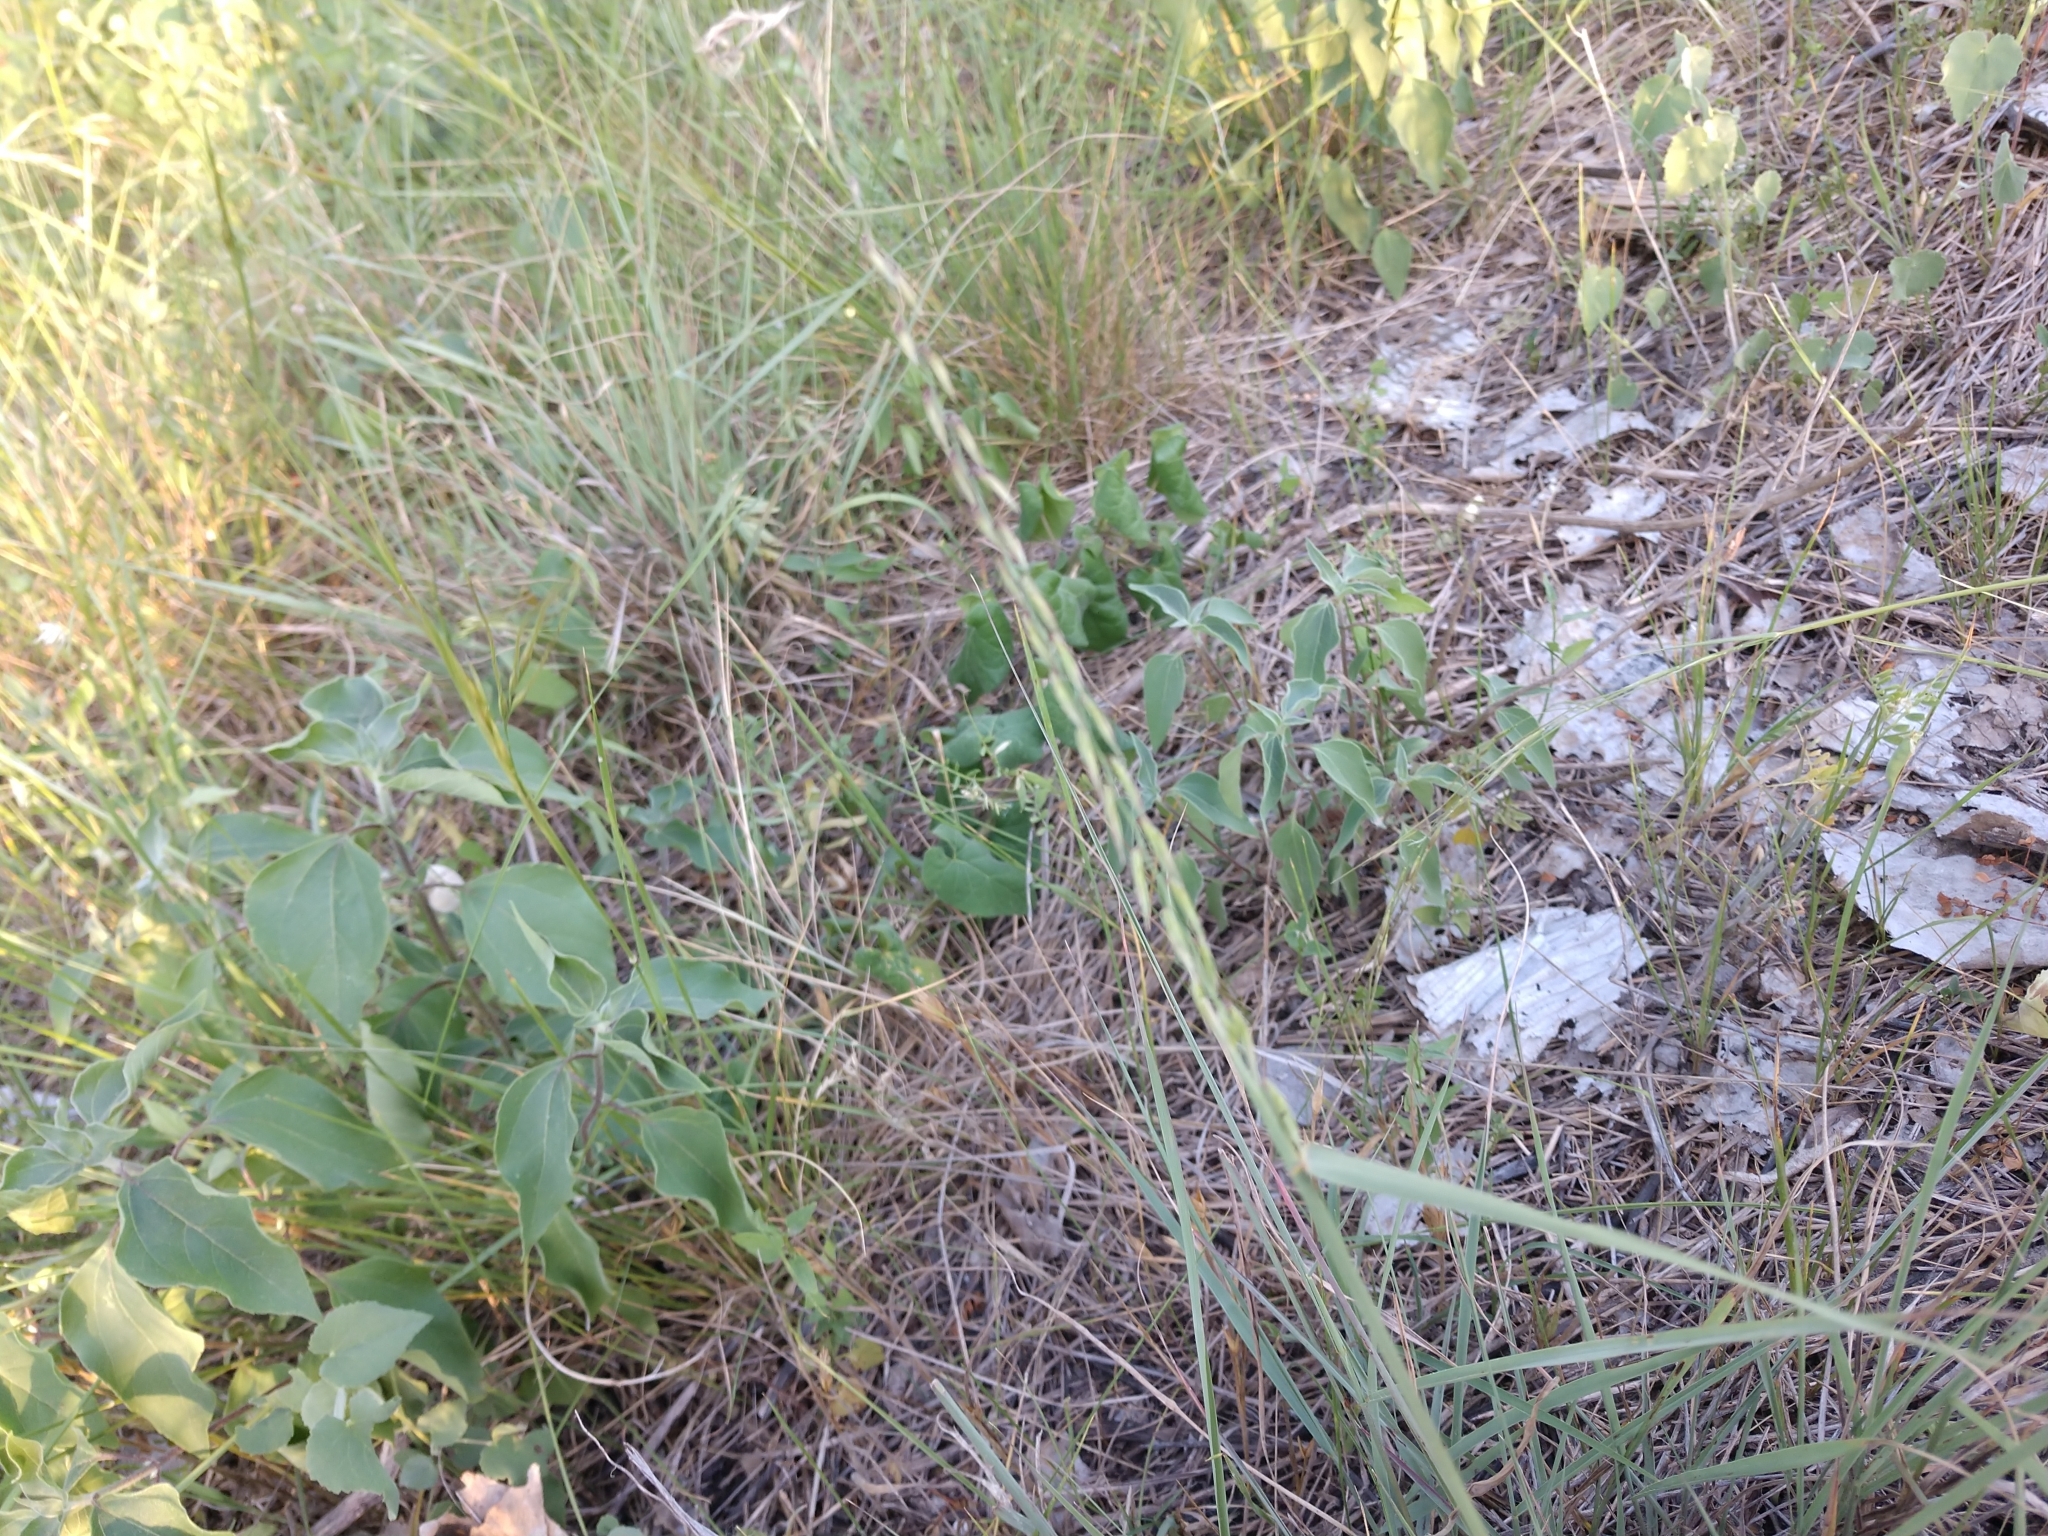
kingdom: Plantae
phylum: Tracheophyta
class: Liliopsida
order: Poales
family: Poaceae
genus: Bouteloua
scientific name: Bouteloua curtipendula
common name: Side-oats grama
